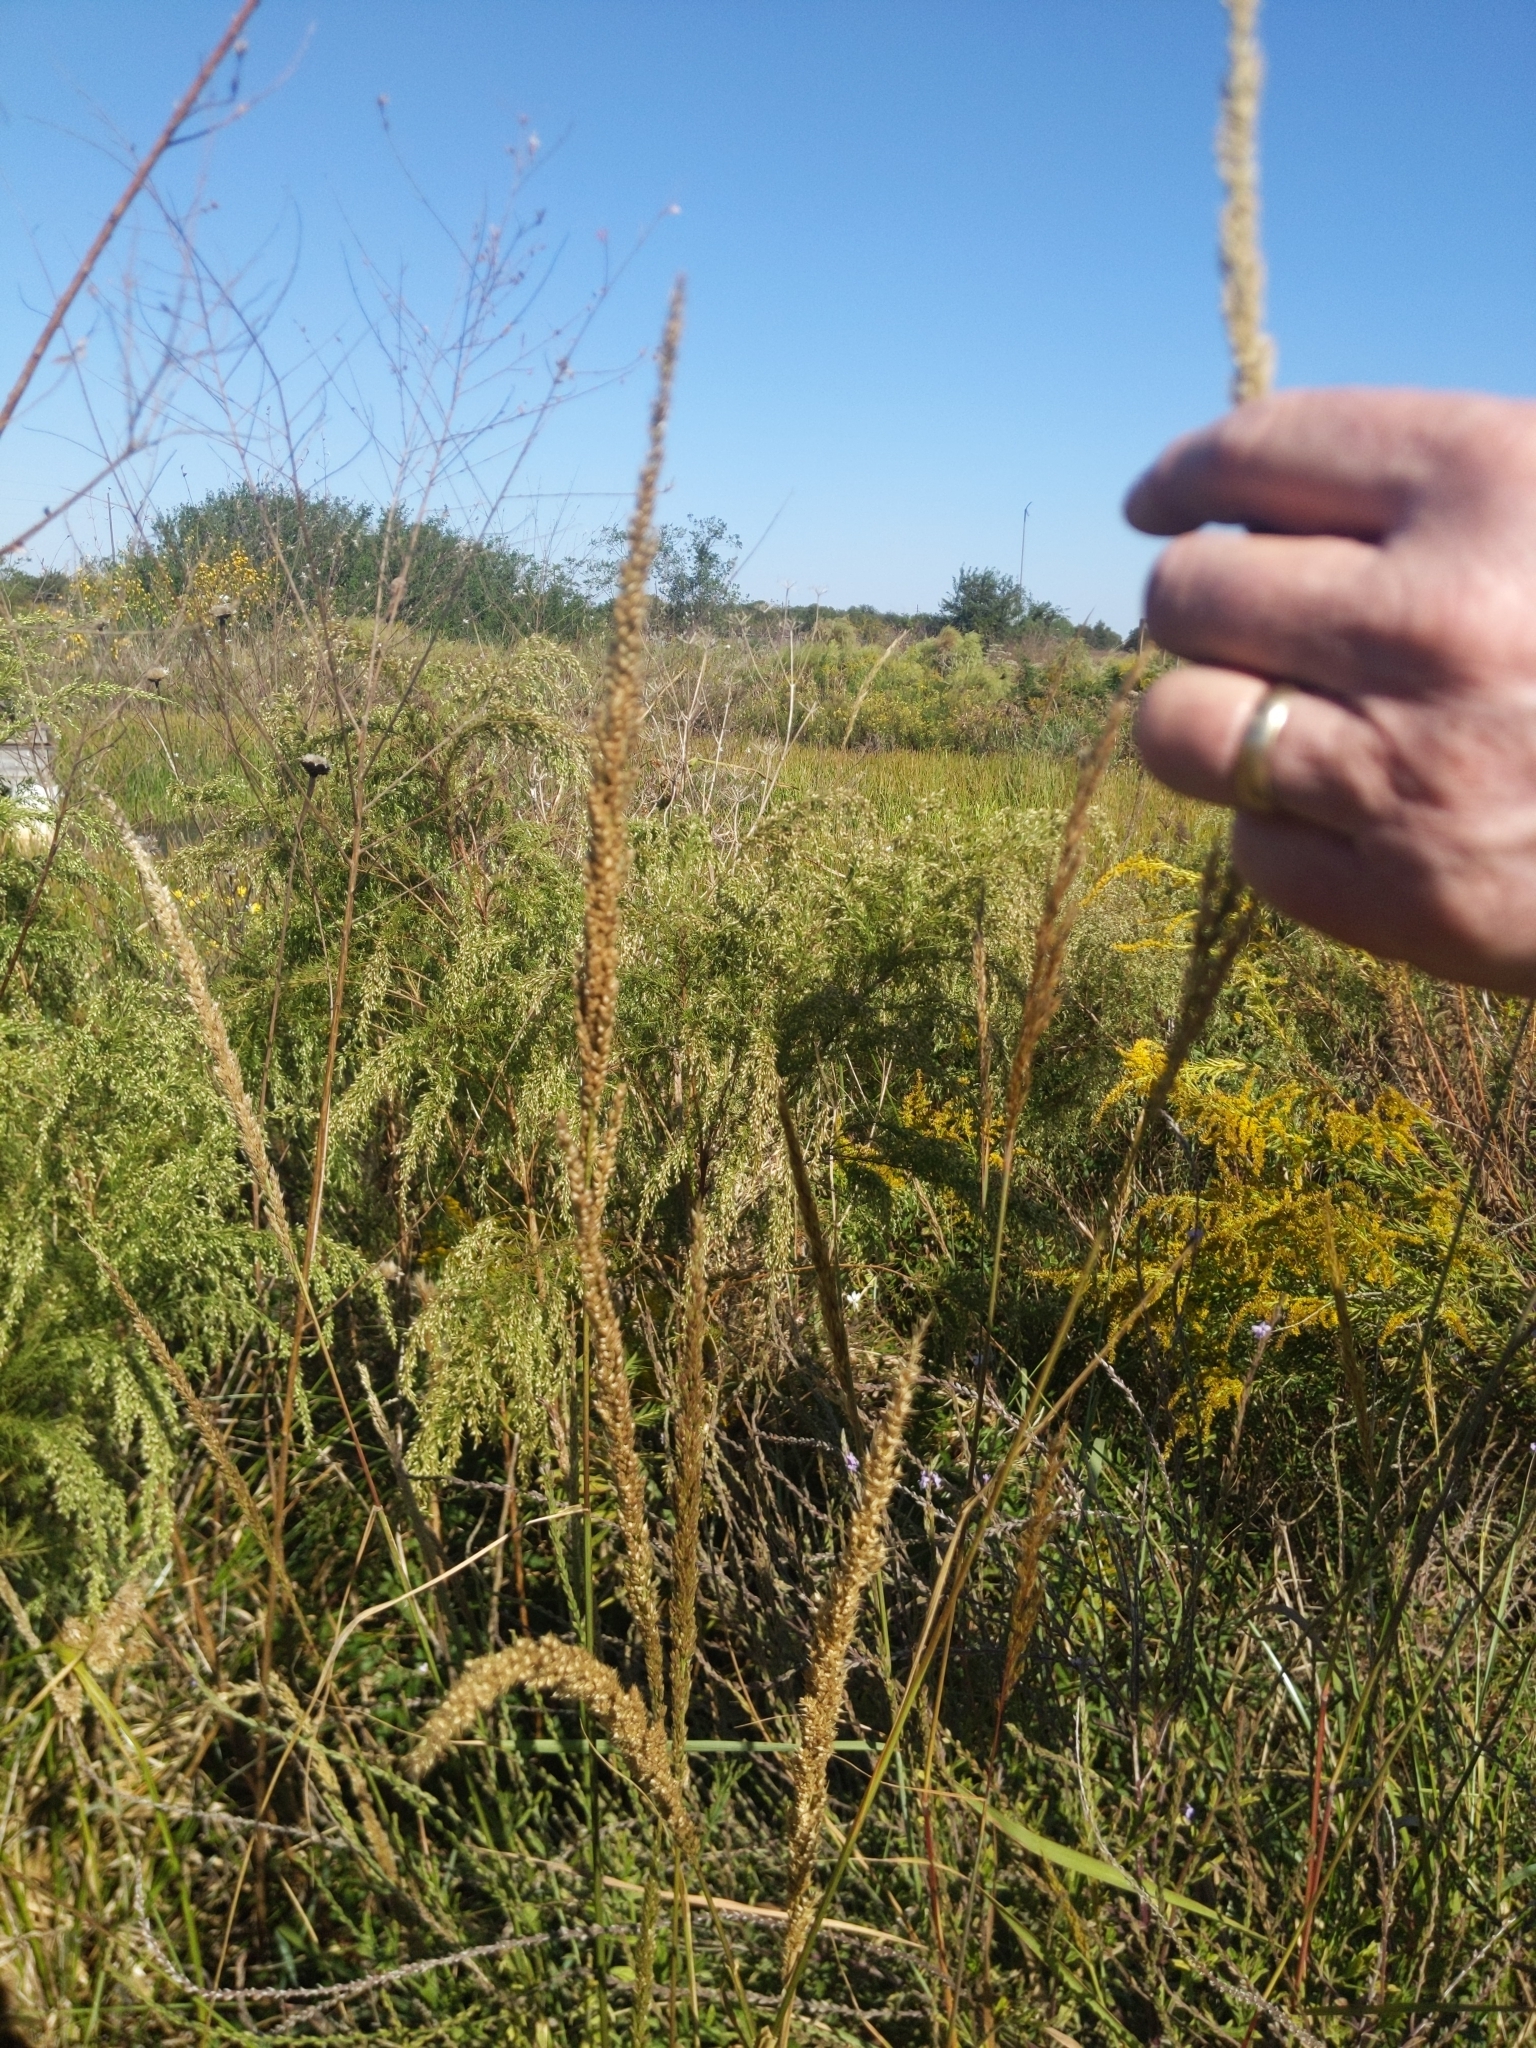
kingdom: Plantae
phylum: Tracheophyta
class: Liliopsida
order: Poales
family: Poaceae
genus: Tridens
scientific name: Tridens strictus
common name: Long-spike tridens
